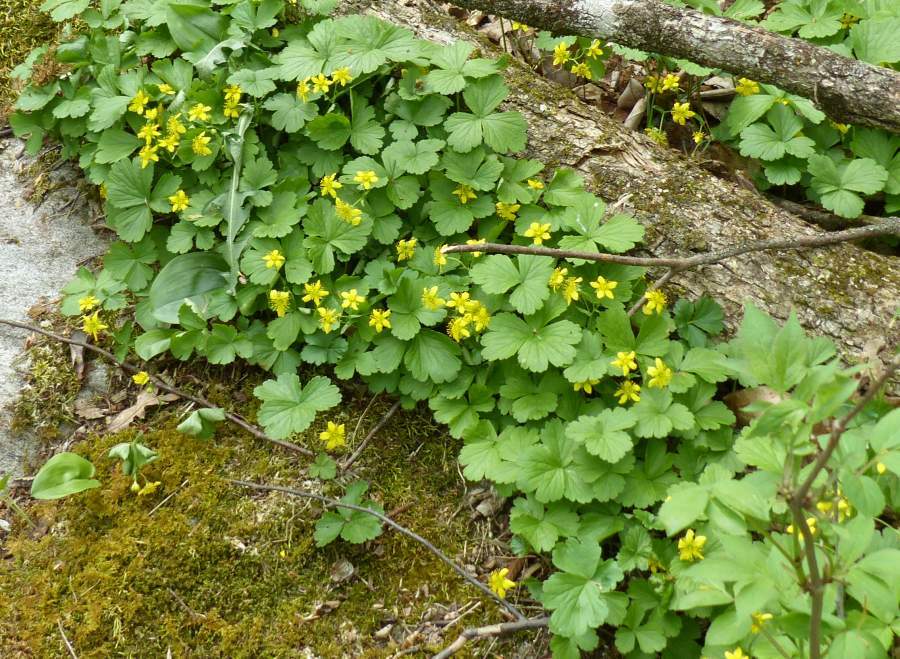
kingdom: Plantae
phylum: Tracheophyta
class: Magnoliopsida
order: Rosales
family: Rosaceae
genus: Geum
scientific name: Geum fragarioides
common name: Appalachian barren strawberry
